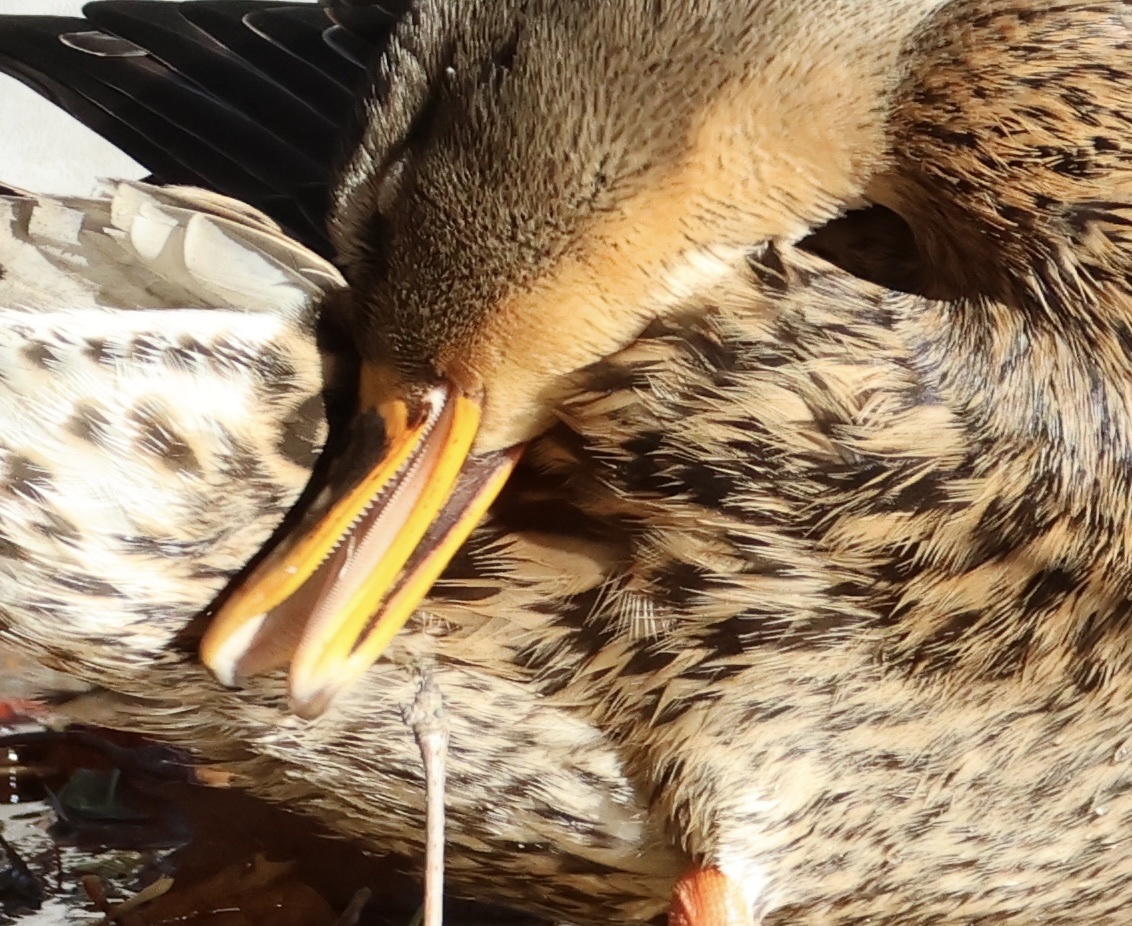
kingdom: Animalia
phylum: Chordata
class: Aves
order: Anseriformes
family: Anatidae
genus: Anas
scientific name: Anas platyrhynchos
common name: Mallard
